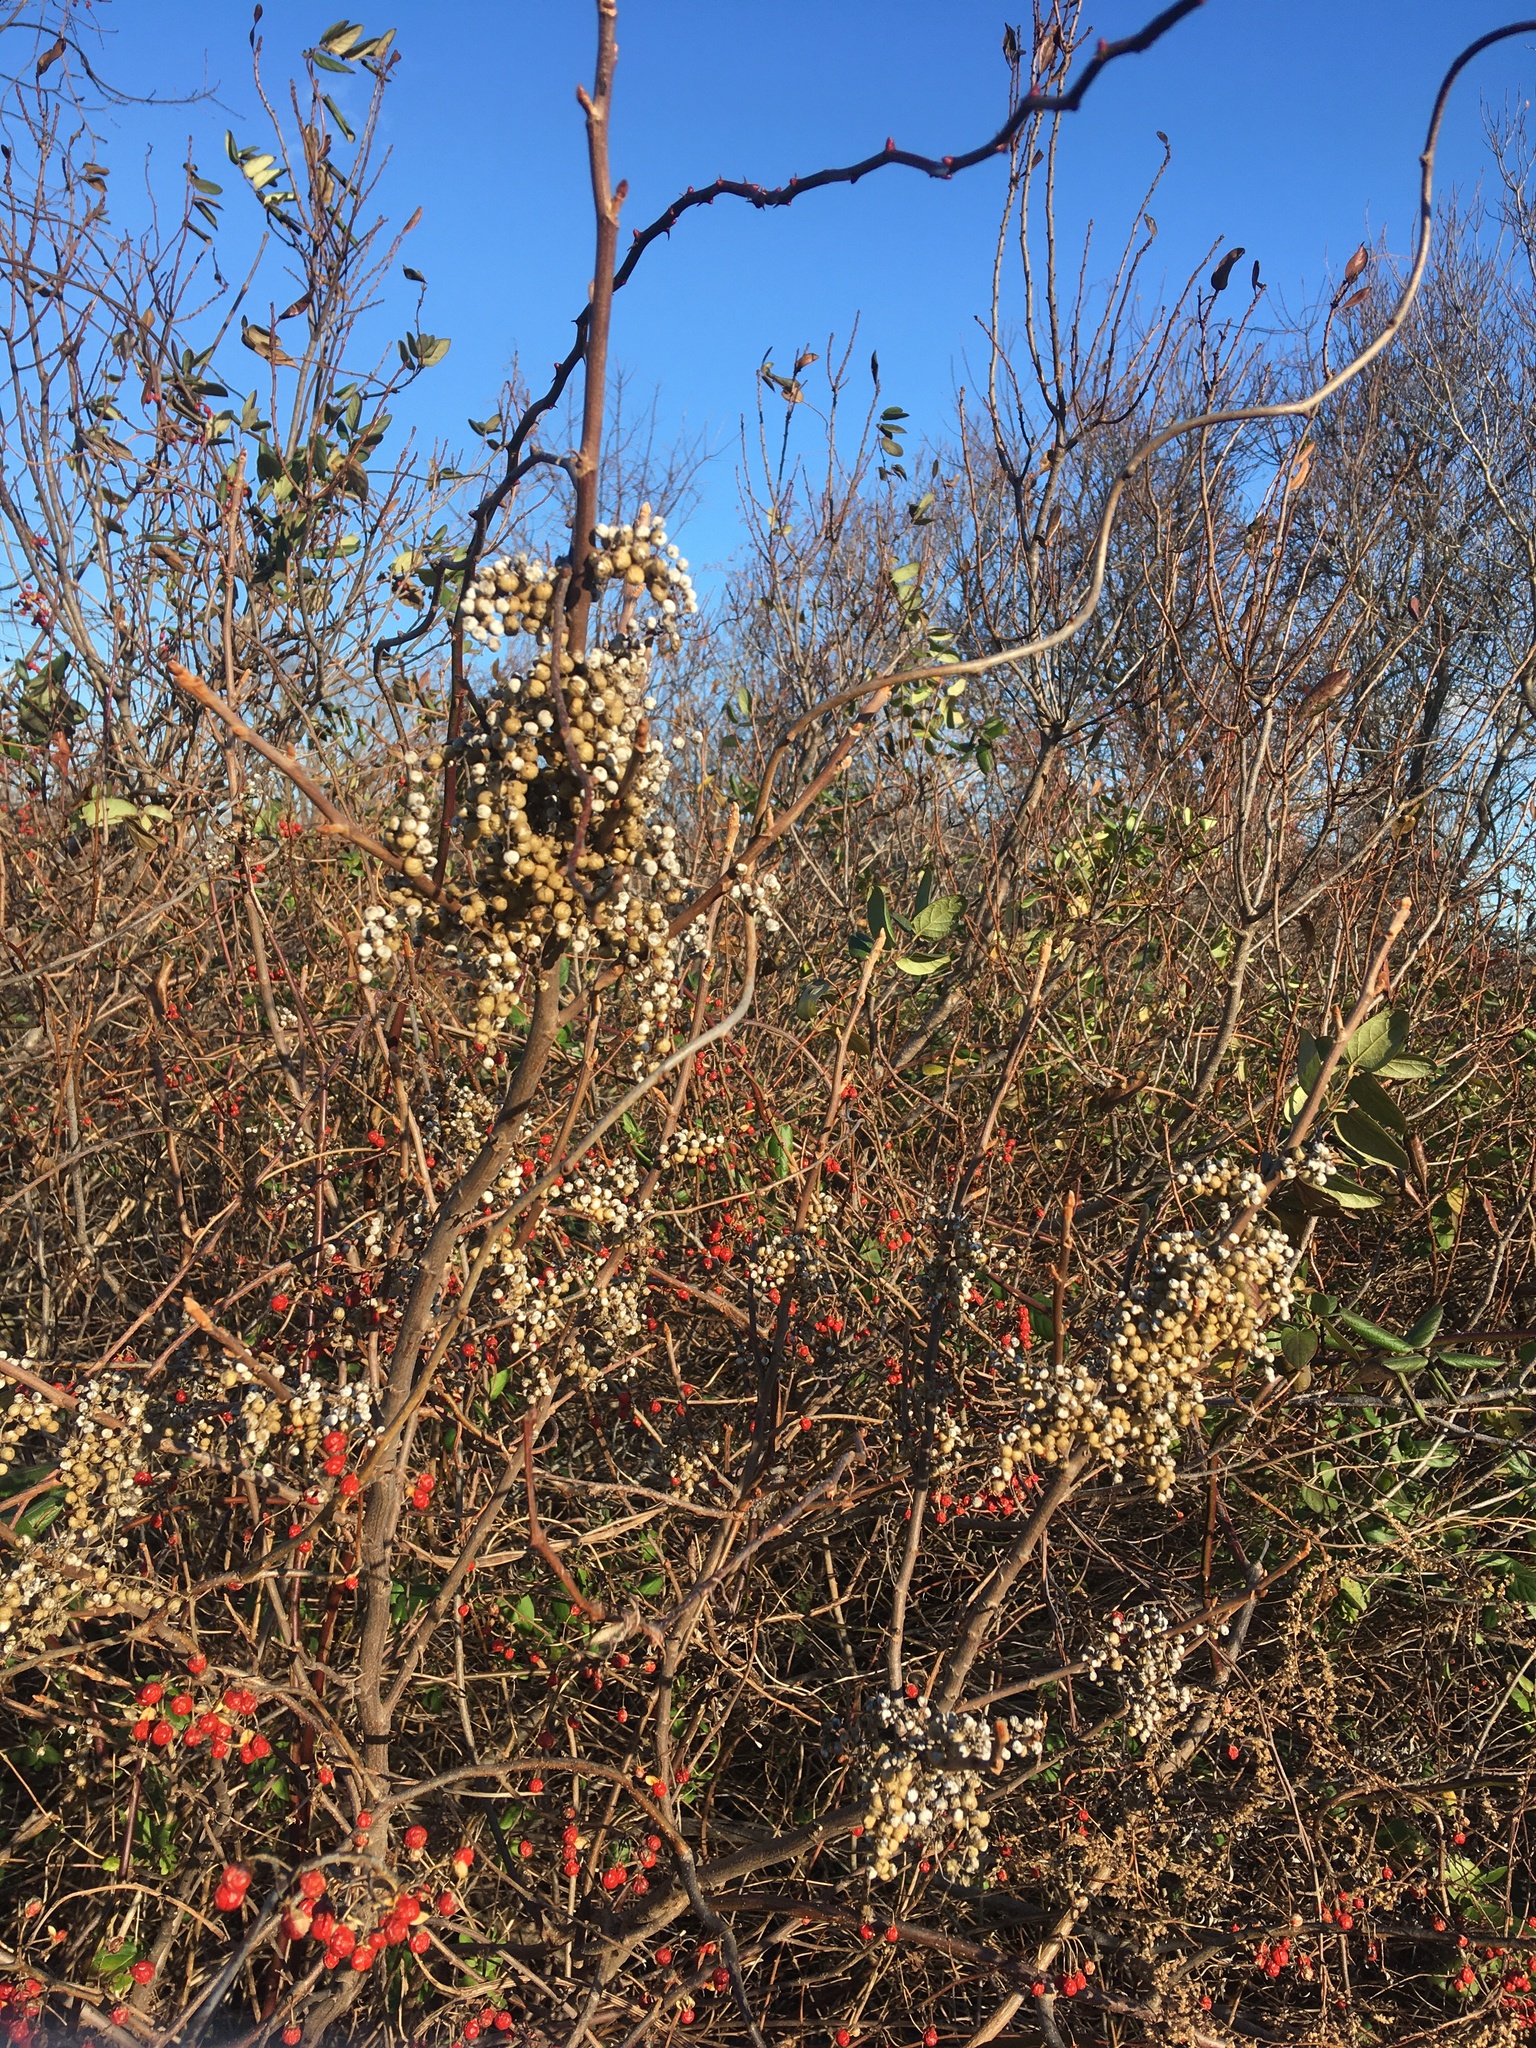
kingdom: Plantae
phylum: Tracheophyta
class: Magnoliopsida
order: Sapindales
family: Anacardiaceae
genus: Toxicodendron
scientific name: Toxicodendron radicans
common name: Poison ivy
